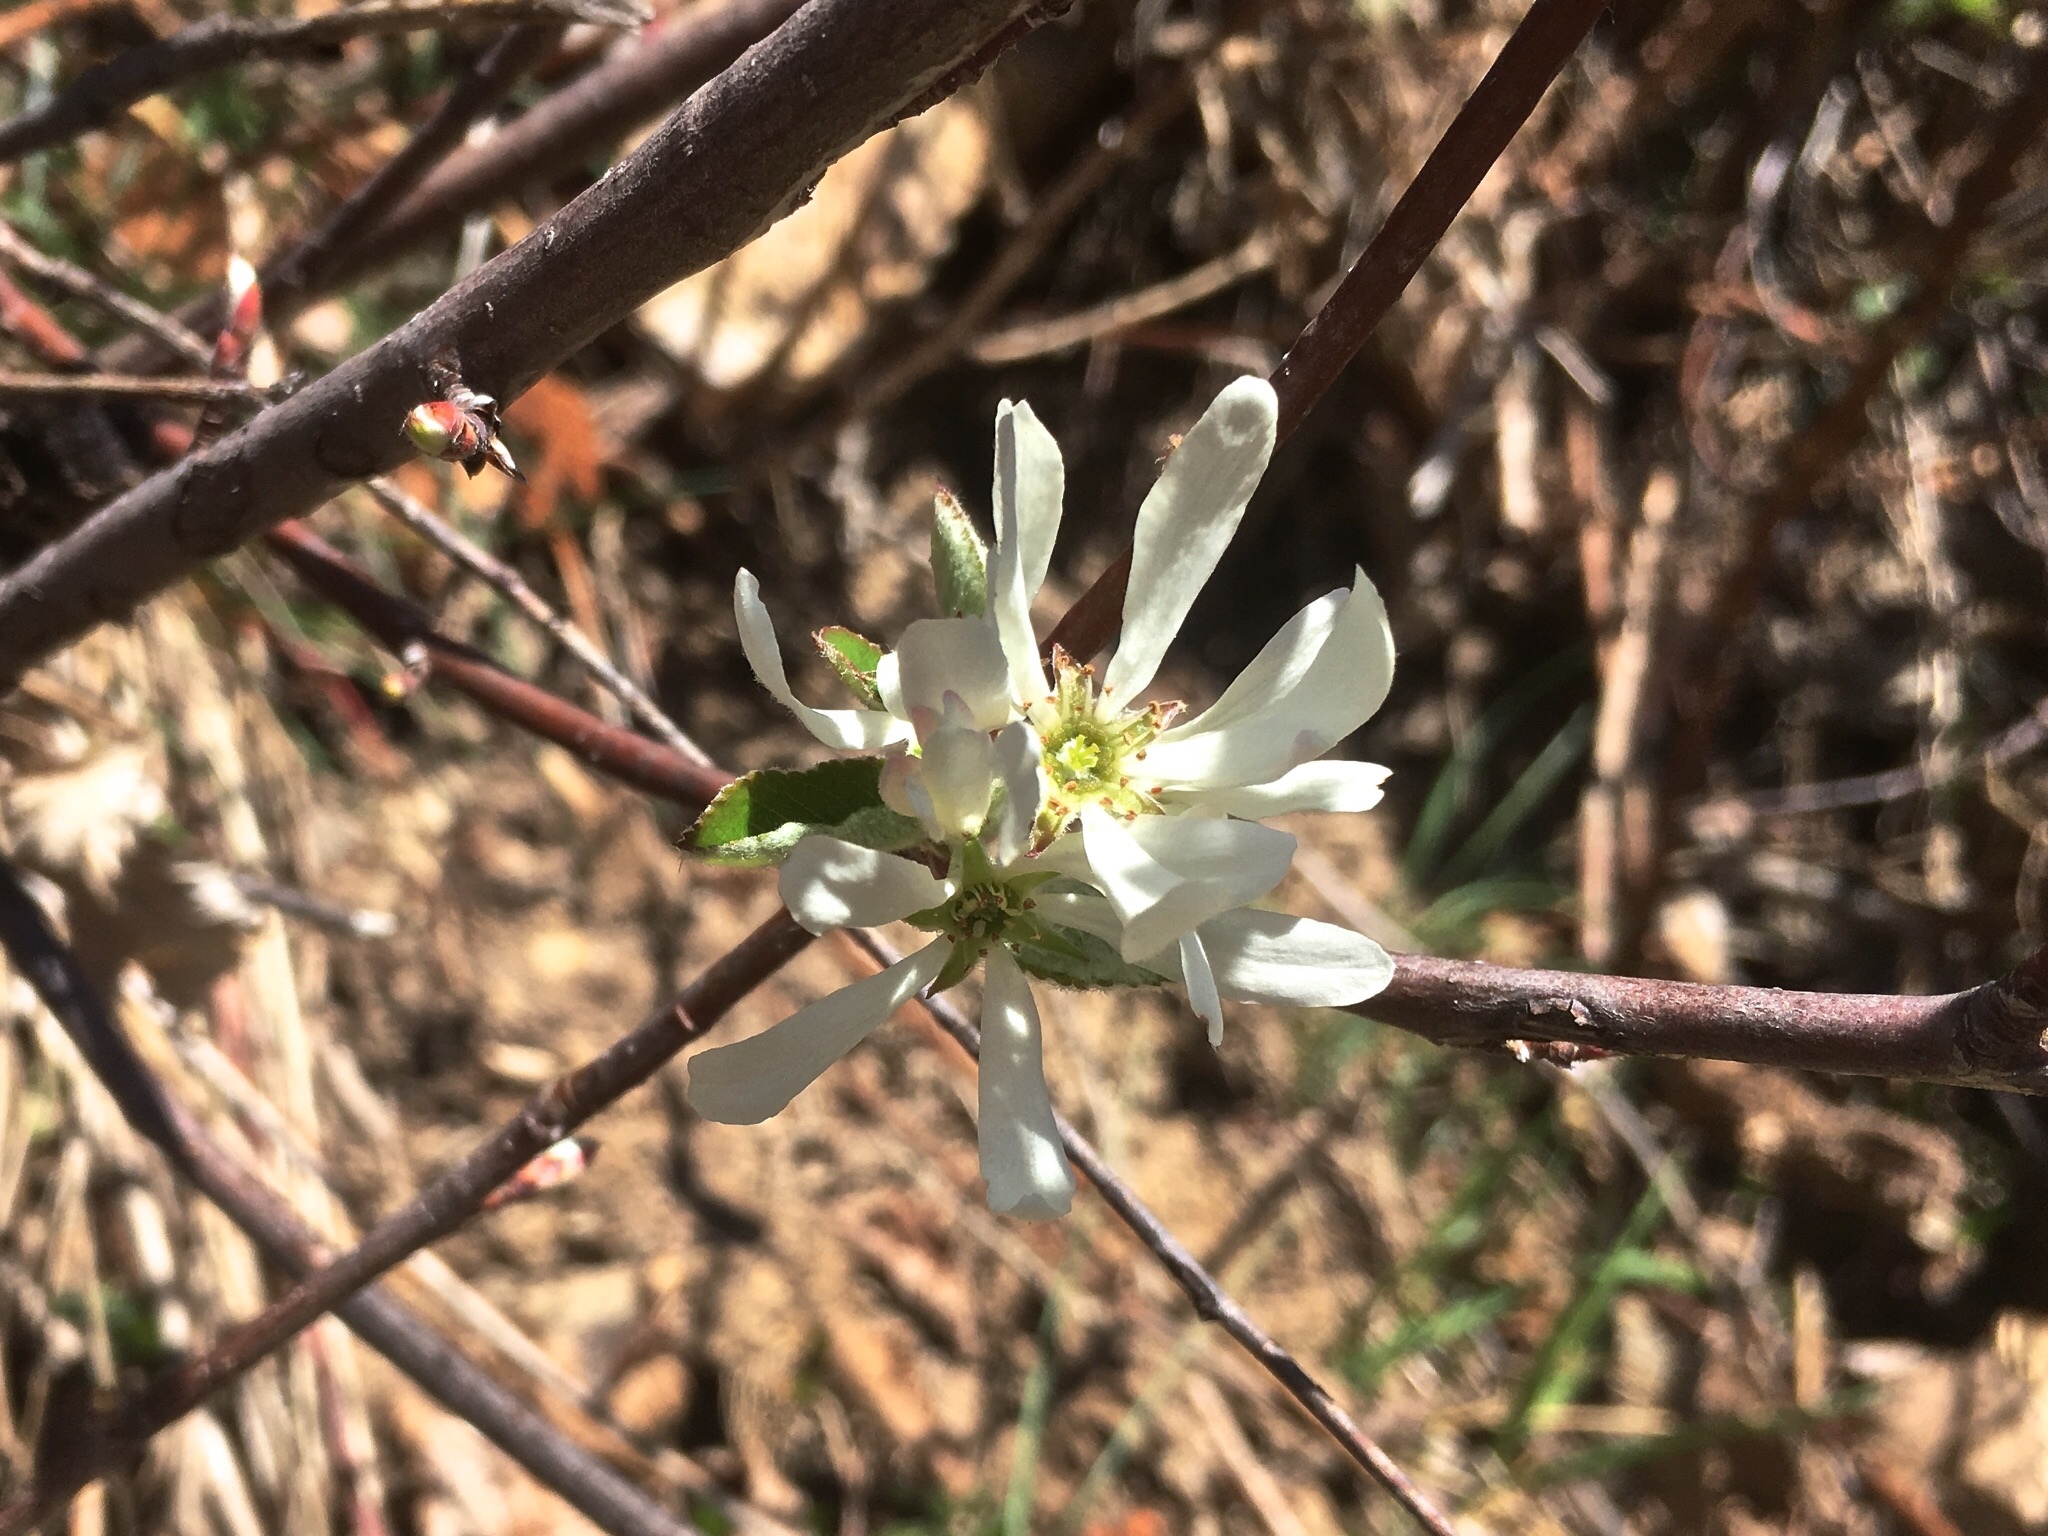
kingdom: Plantae
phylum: Tracheophyta
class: Magnoliopsida
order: Rosales
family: Rosaceae
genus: Amelanchier
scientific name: Amelanchier ovalis
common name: Serviceberry
